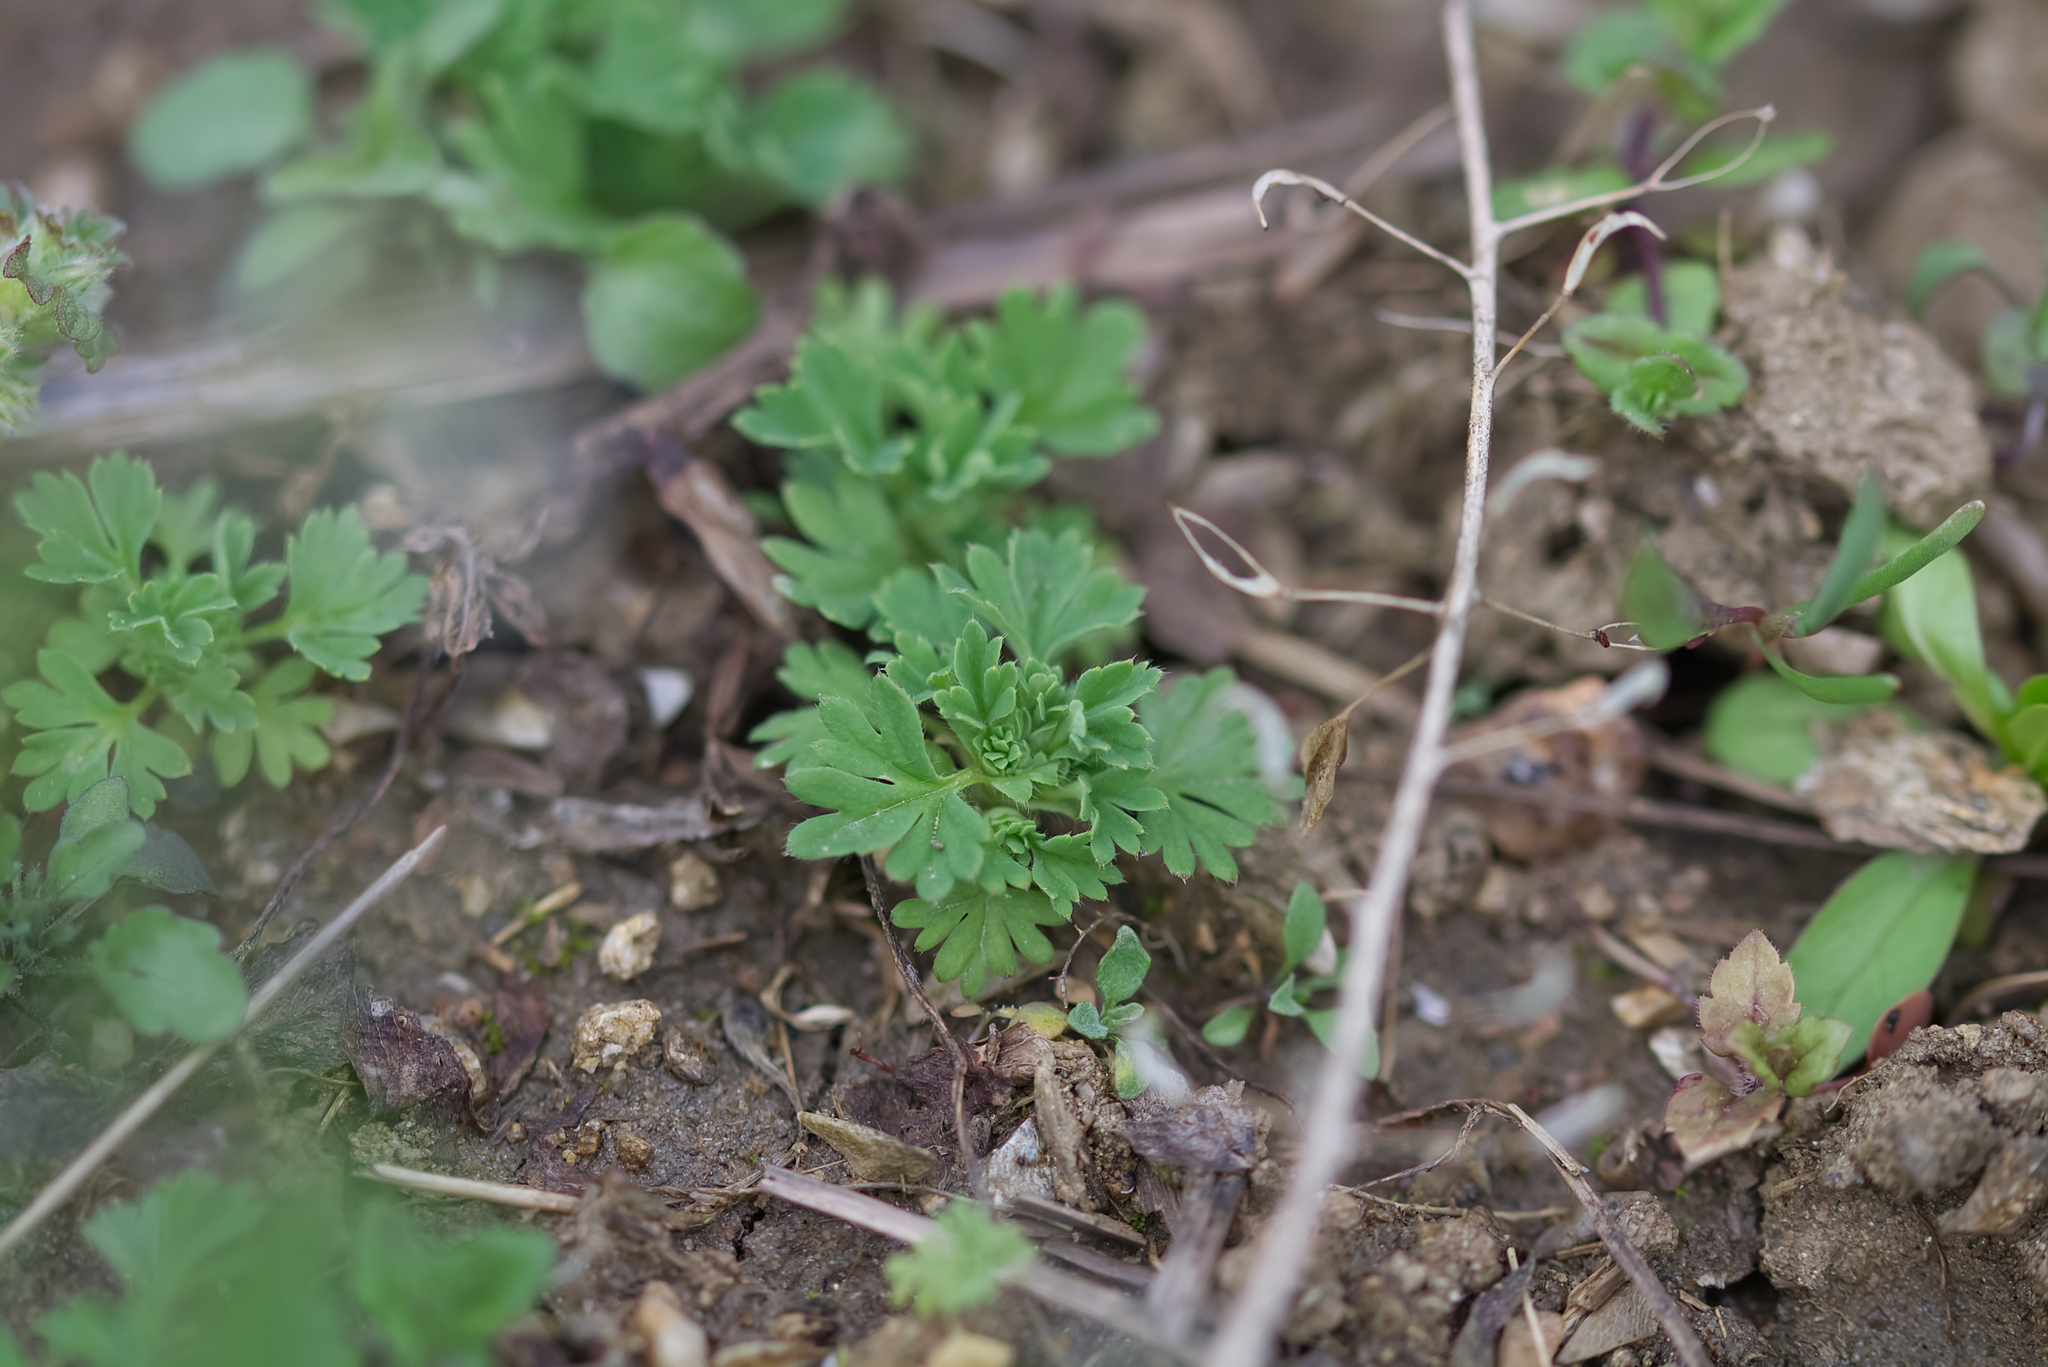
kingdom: Plantae
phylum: Tracheophyta
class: Magnoliopsida
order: Rosales
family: Rosaceae
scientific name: Rosaceae
